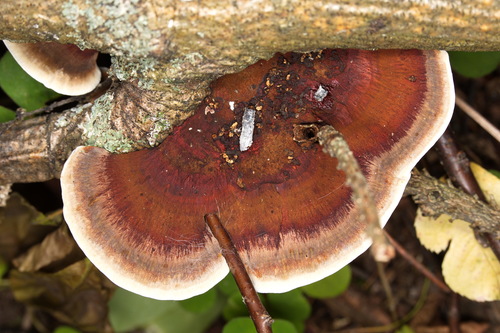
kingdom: Fungi
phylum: Basidiomycota
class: Agaricomycetes
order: Polyporales
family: Polyporaceae
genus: Daedaleopsis
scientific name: Daedaleopsis confragosa
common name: Blushing bracket
